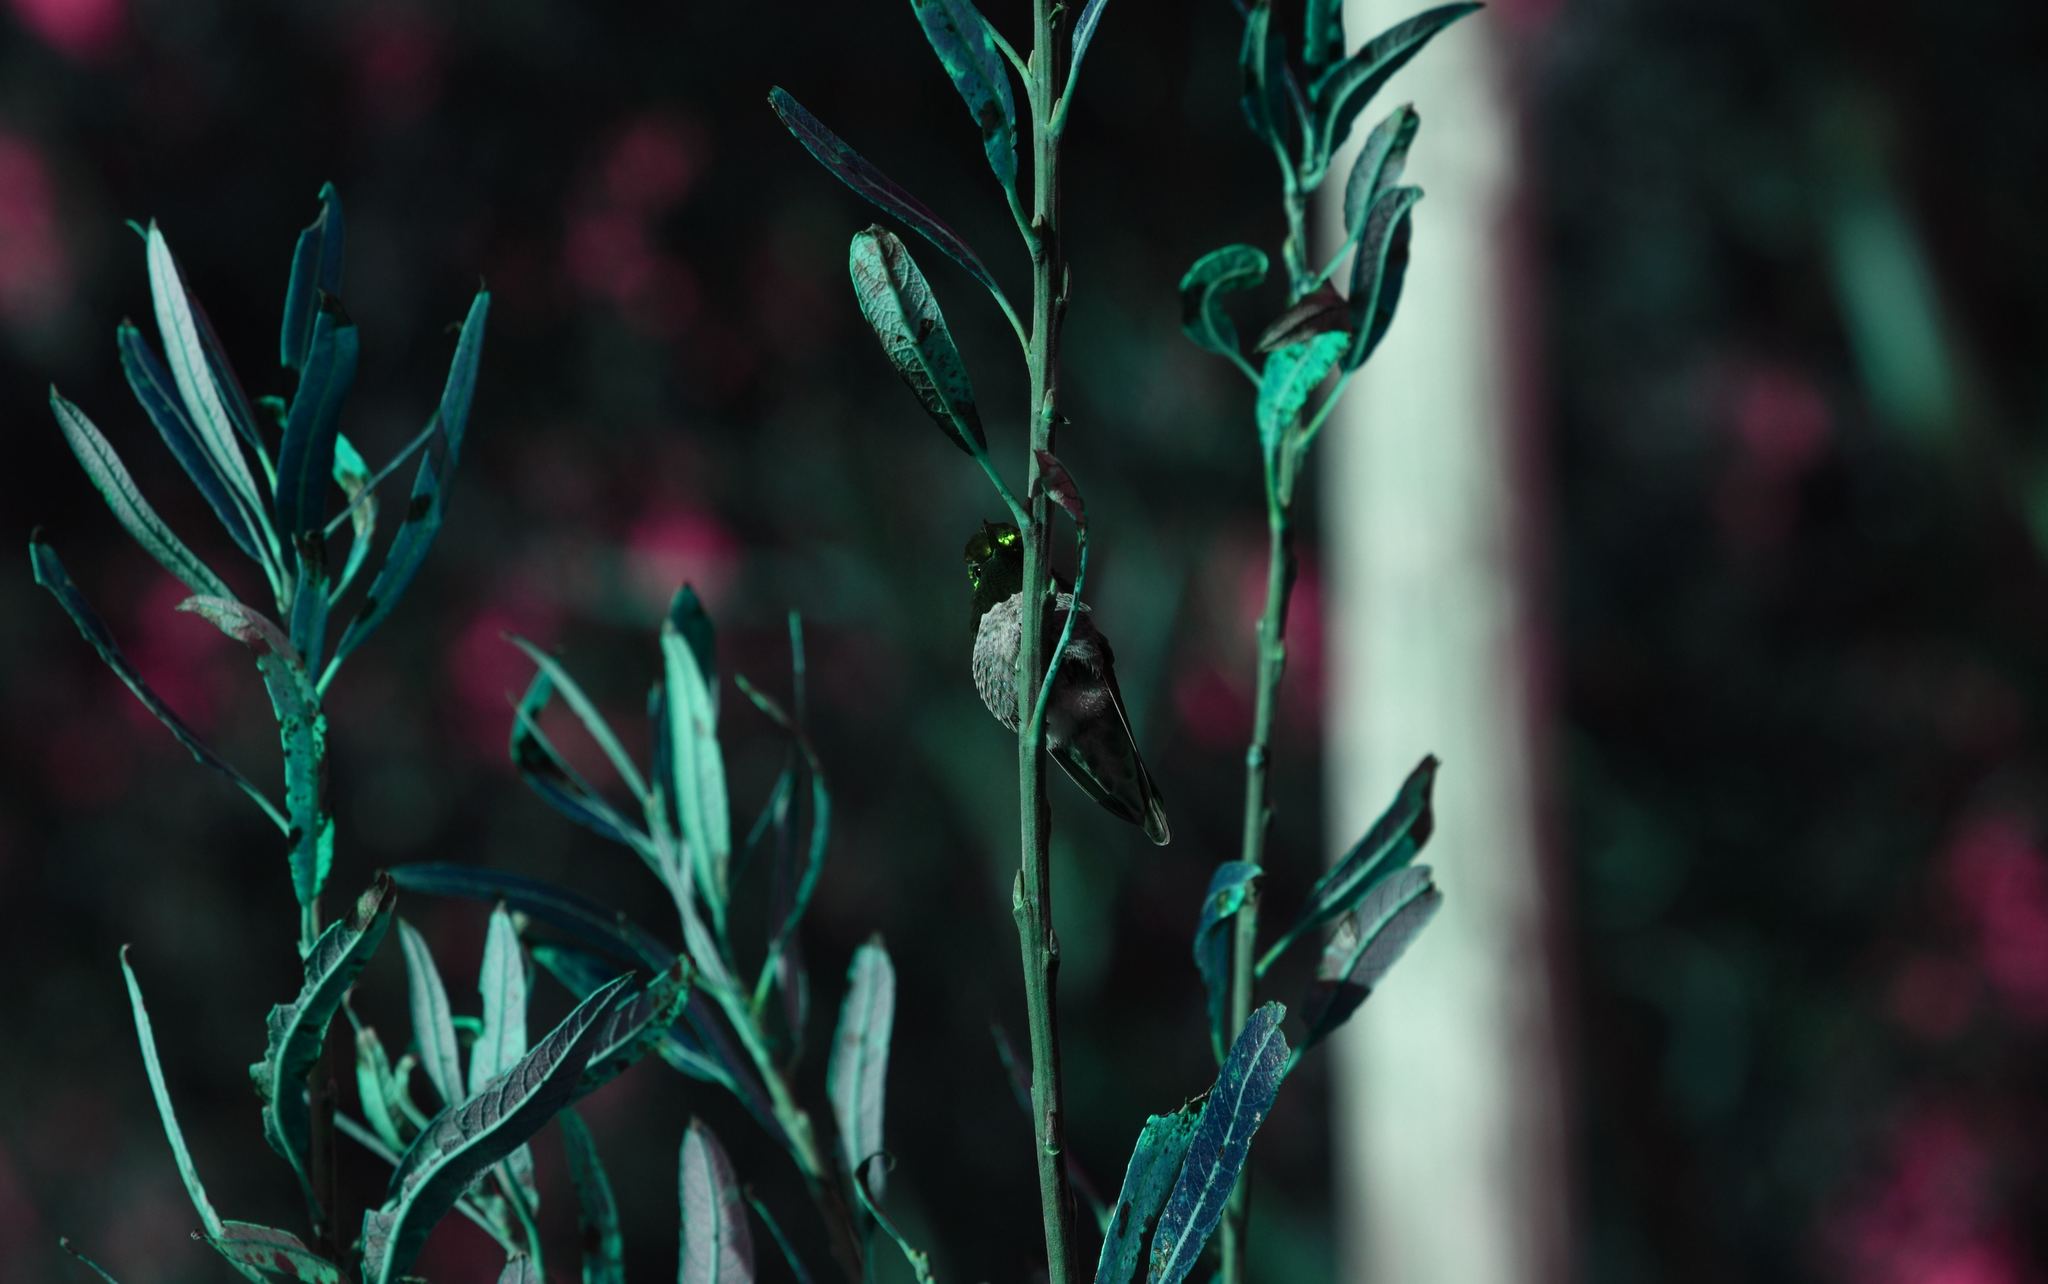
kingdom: Animalia
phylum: Chordata
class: Aves
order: Apodiformes
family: Trochilidae
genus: Calypte
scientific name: Calypte anna
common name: Anna's hummingbird
